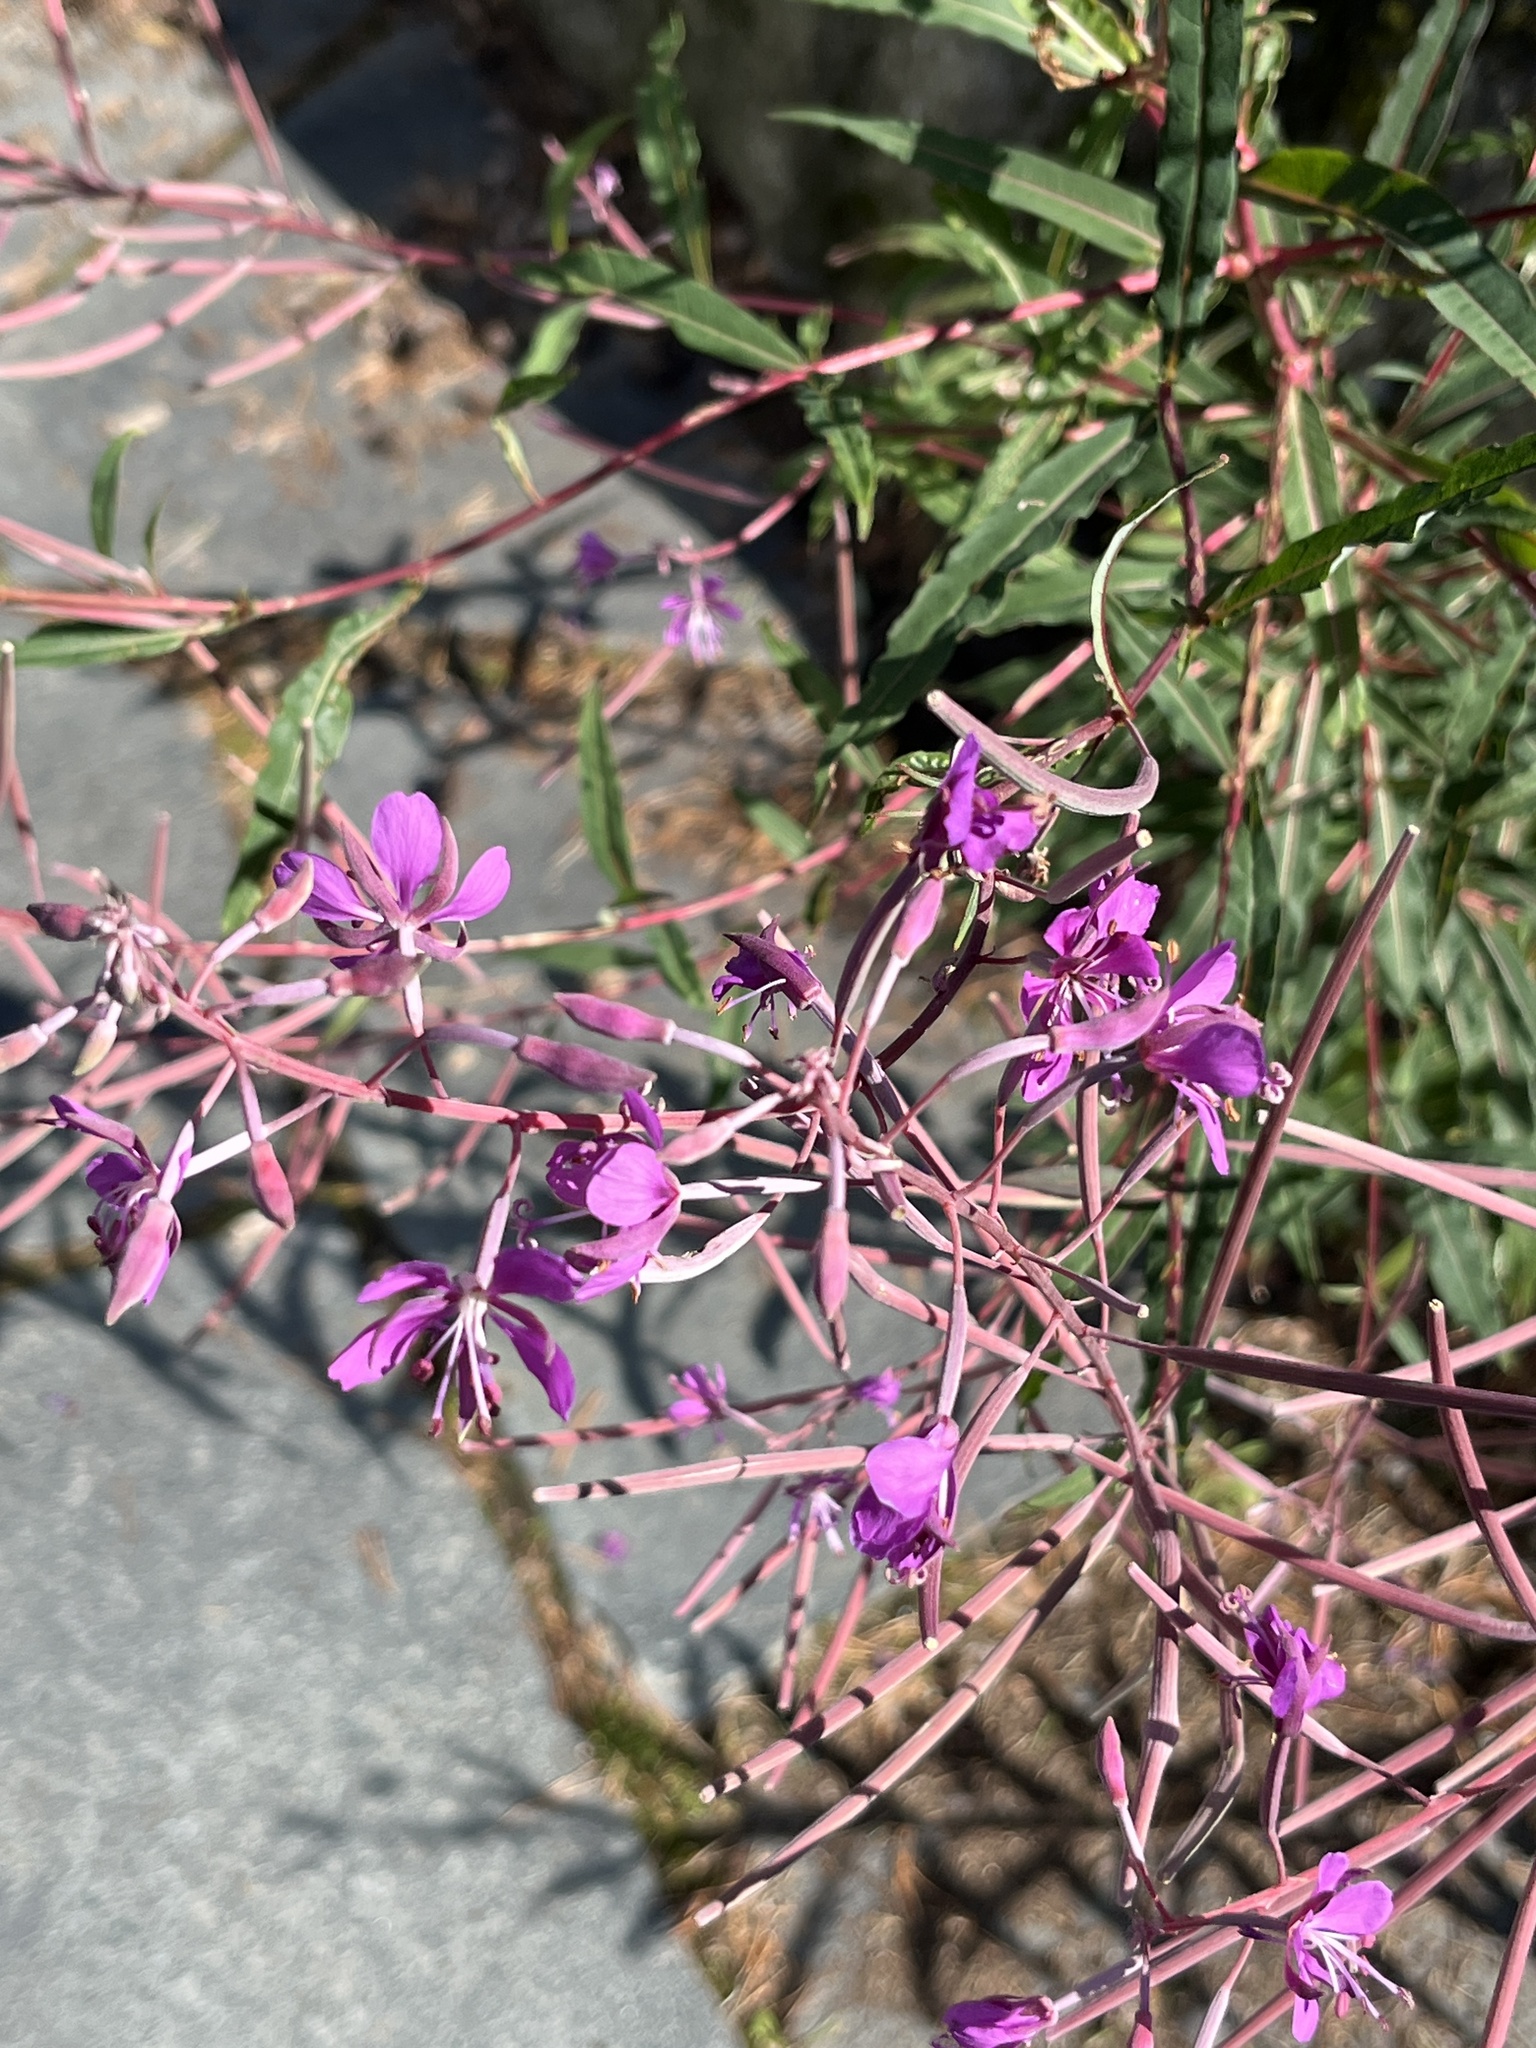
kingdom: Plantae
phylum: Tracheophyta
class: Magnoliopsida
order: Myrtales
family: Onagraceae
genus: Chamaenerion
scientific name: Chamaenerion angustifolium
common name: Fireweed
